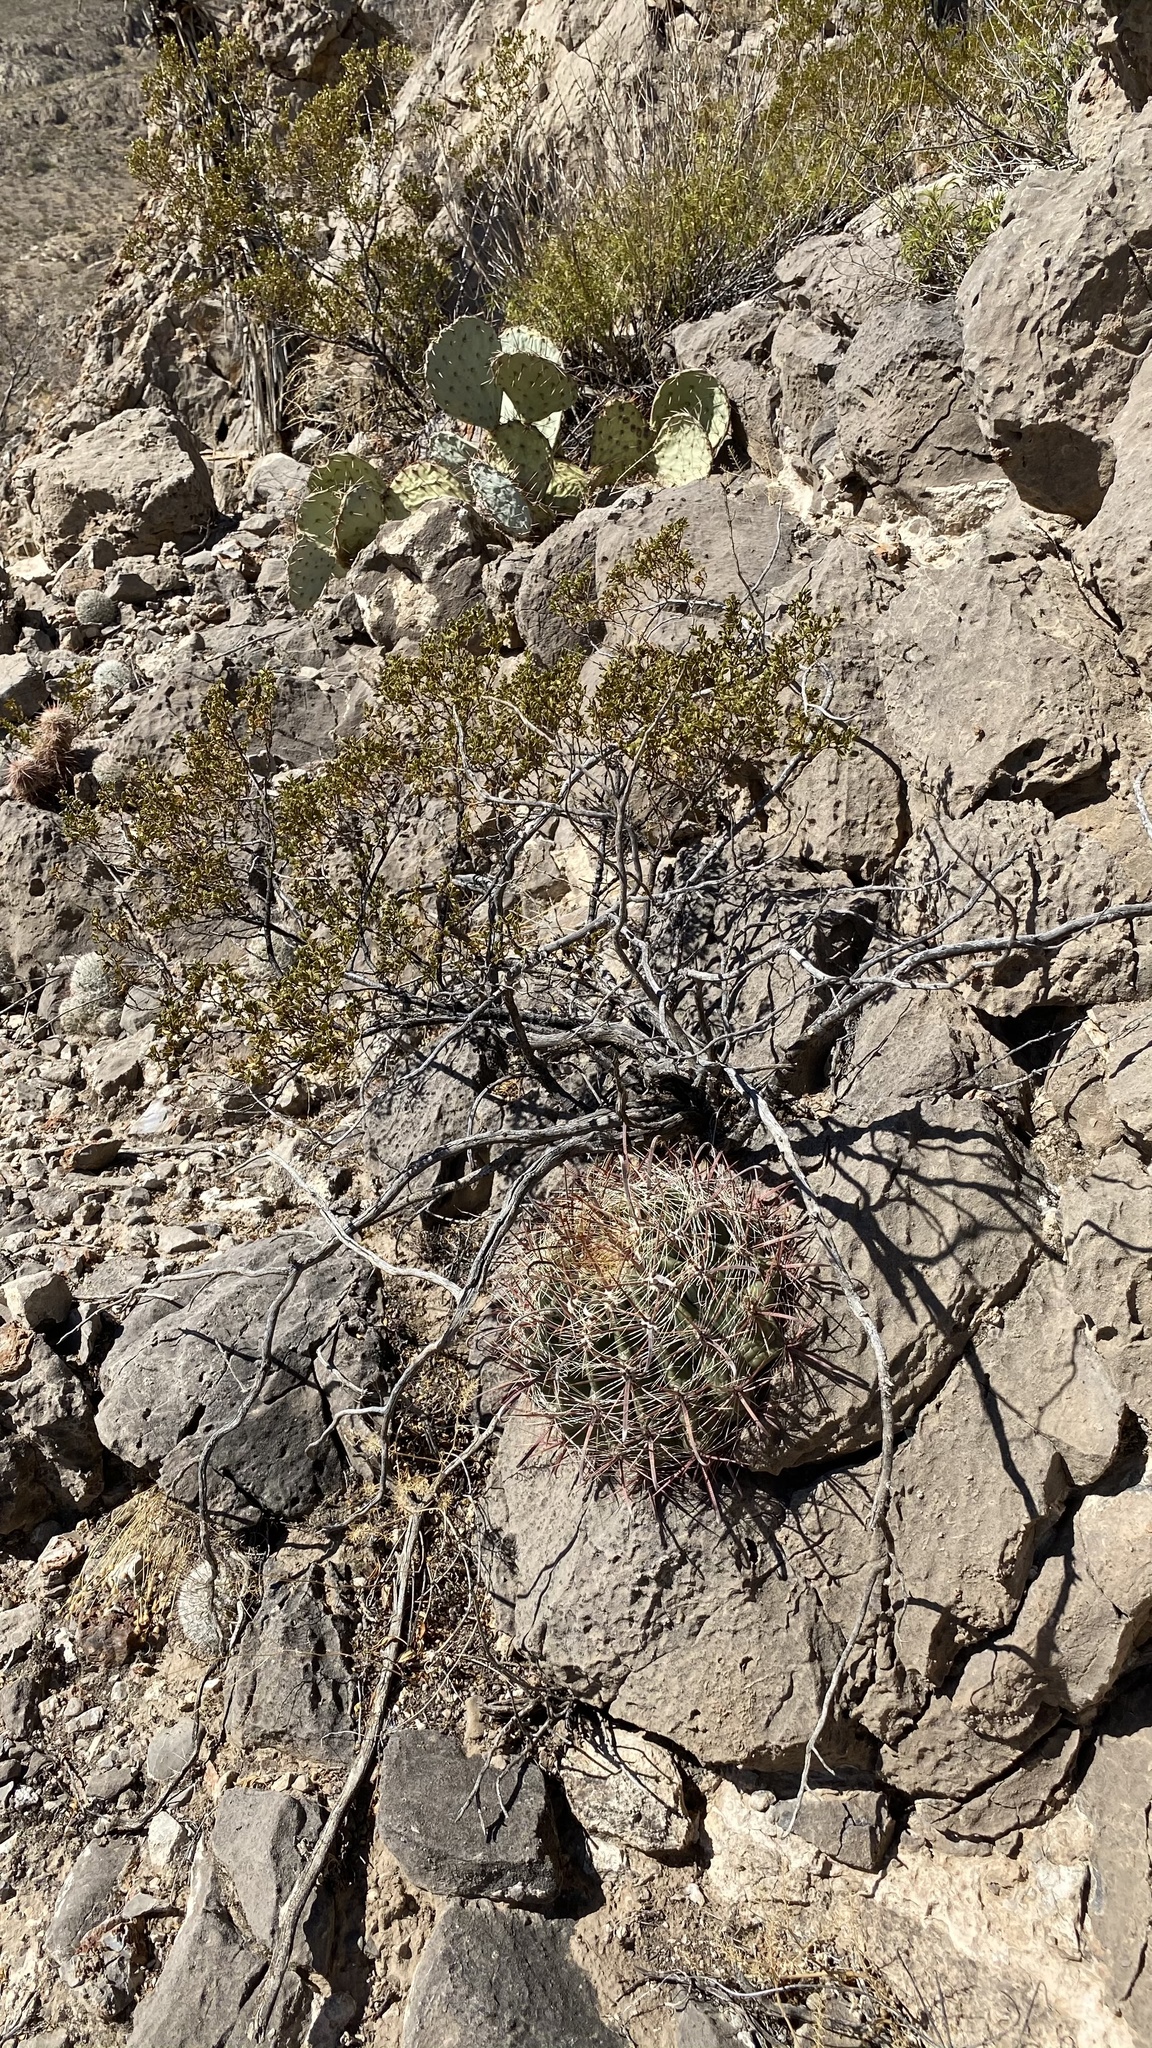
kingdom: Plantae
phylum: Tracheophyta
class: Magnoliopsida
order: Caryophyllales
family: Cactaceae
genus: Ferocactus
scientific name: Ferocactus wislizeni
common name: Candy barrel cactus
